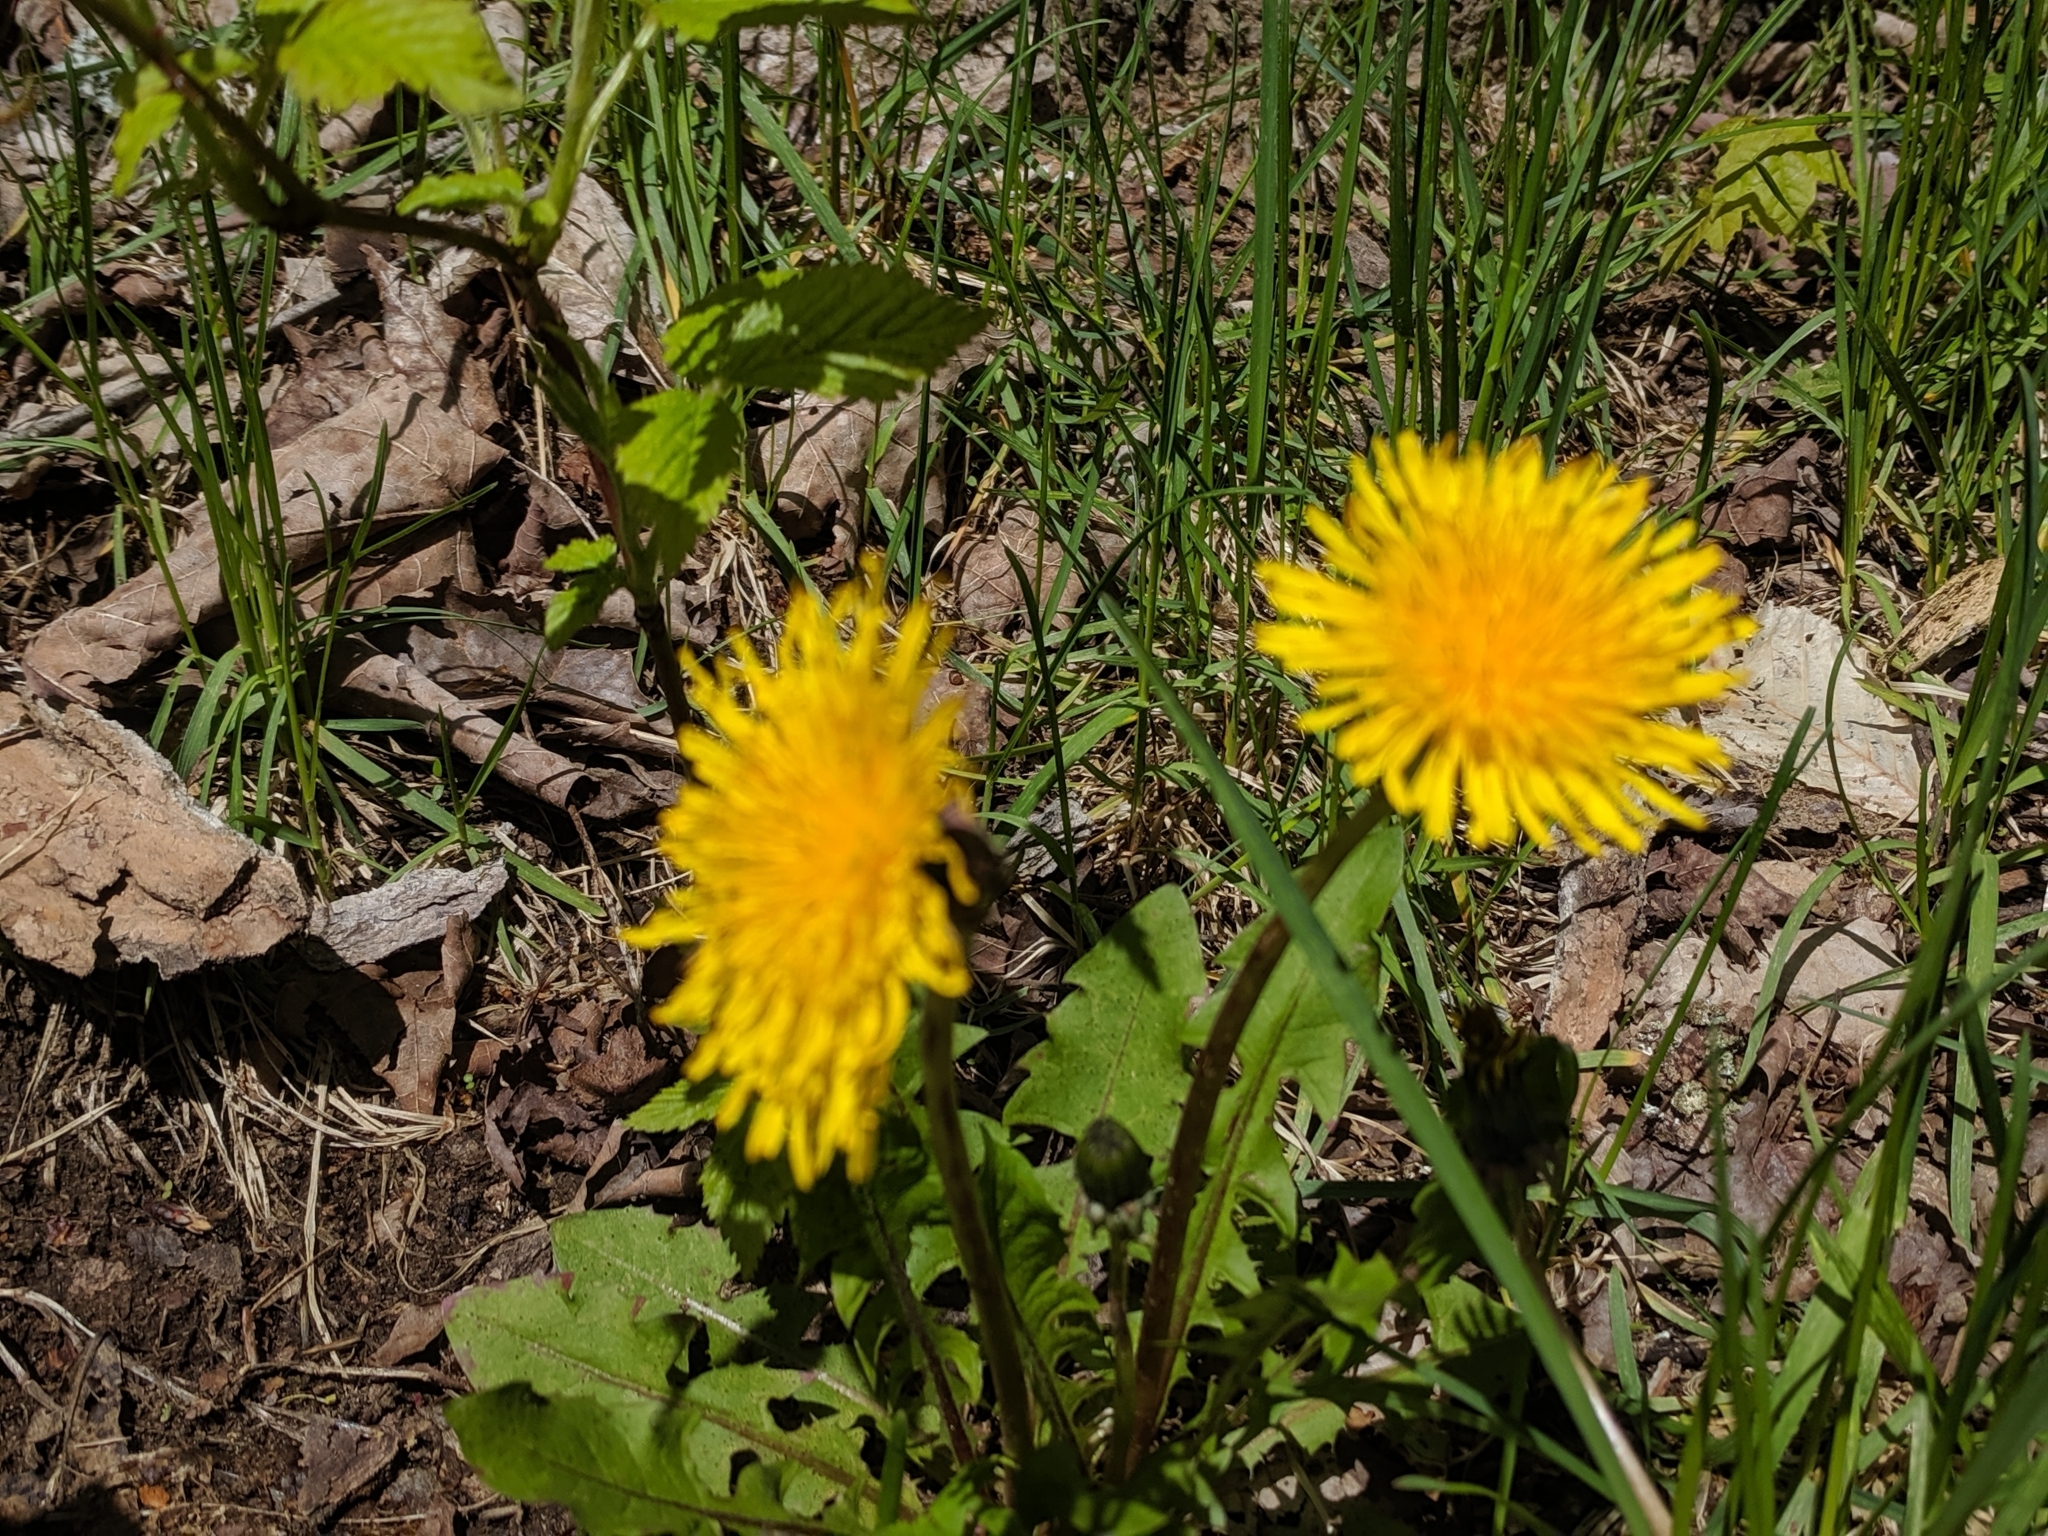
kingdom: Plantae
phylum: Tracheophyta
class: Magnoliopsida
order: Asterales
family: Asteraceae
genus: Taraxacum
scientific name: Taraxacum officinale
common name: Common dandelion
